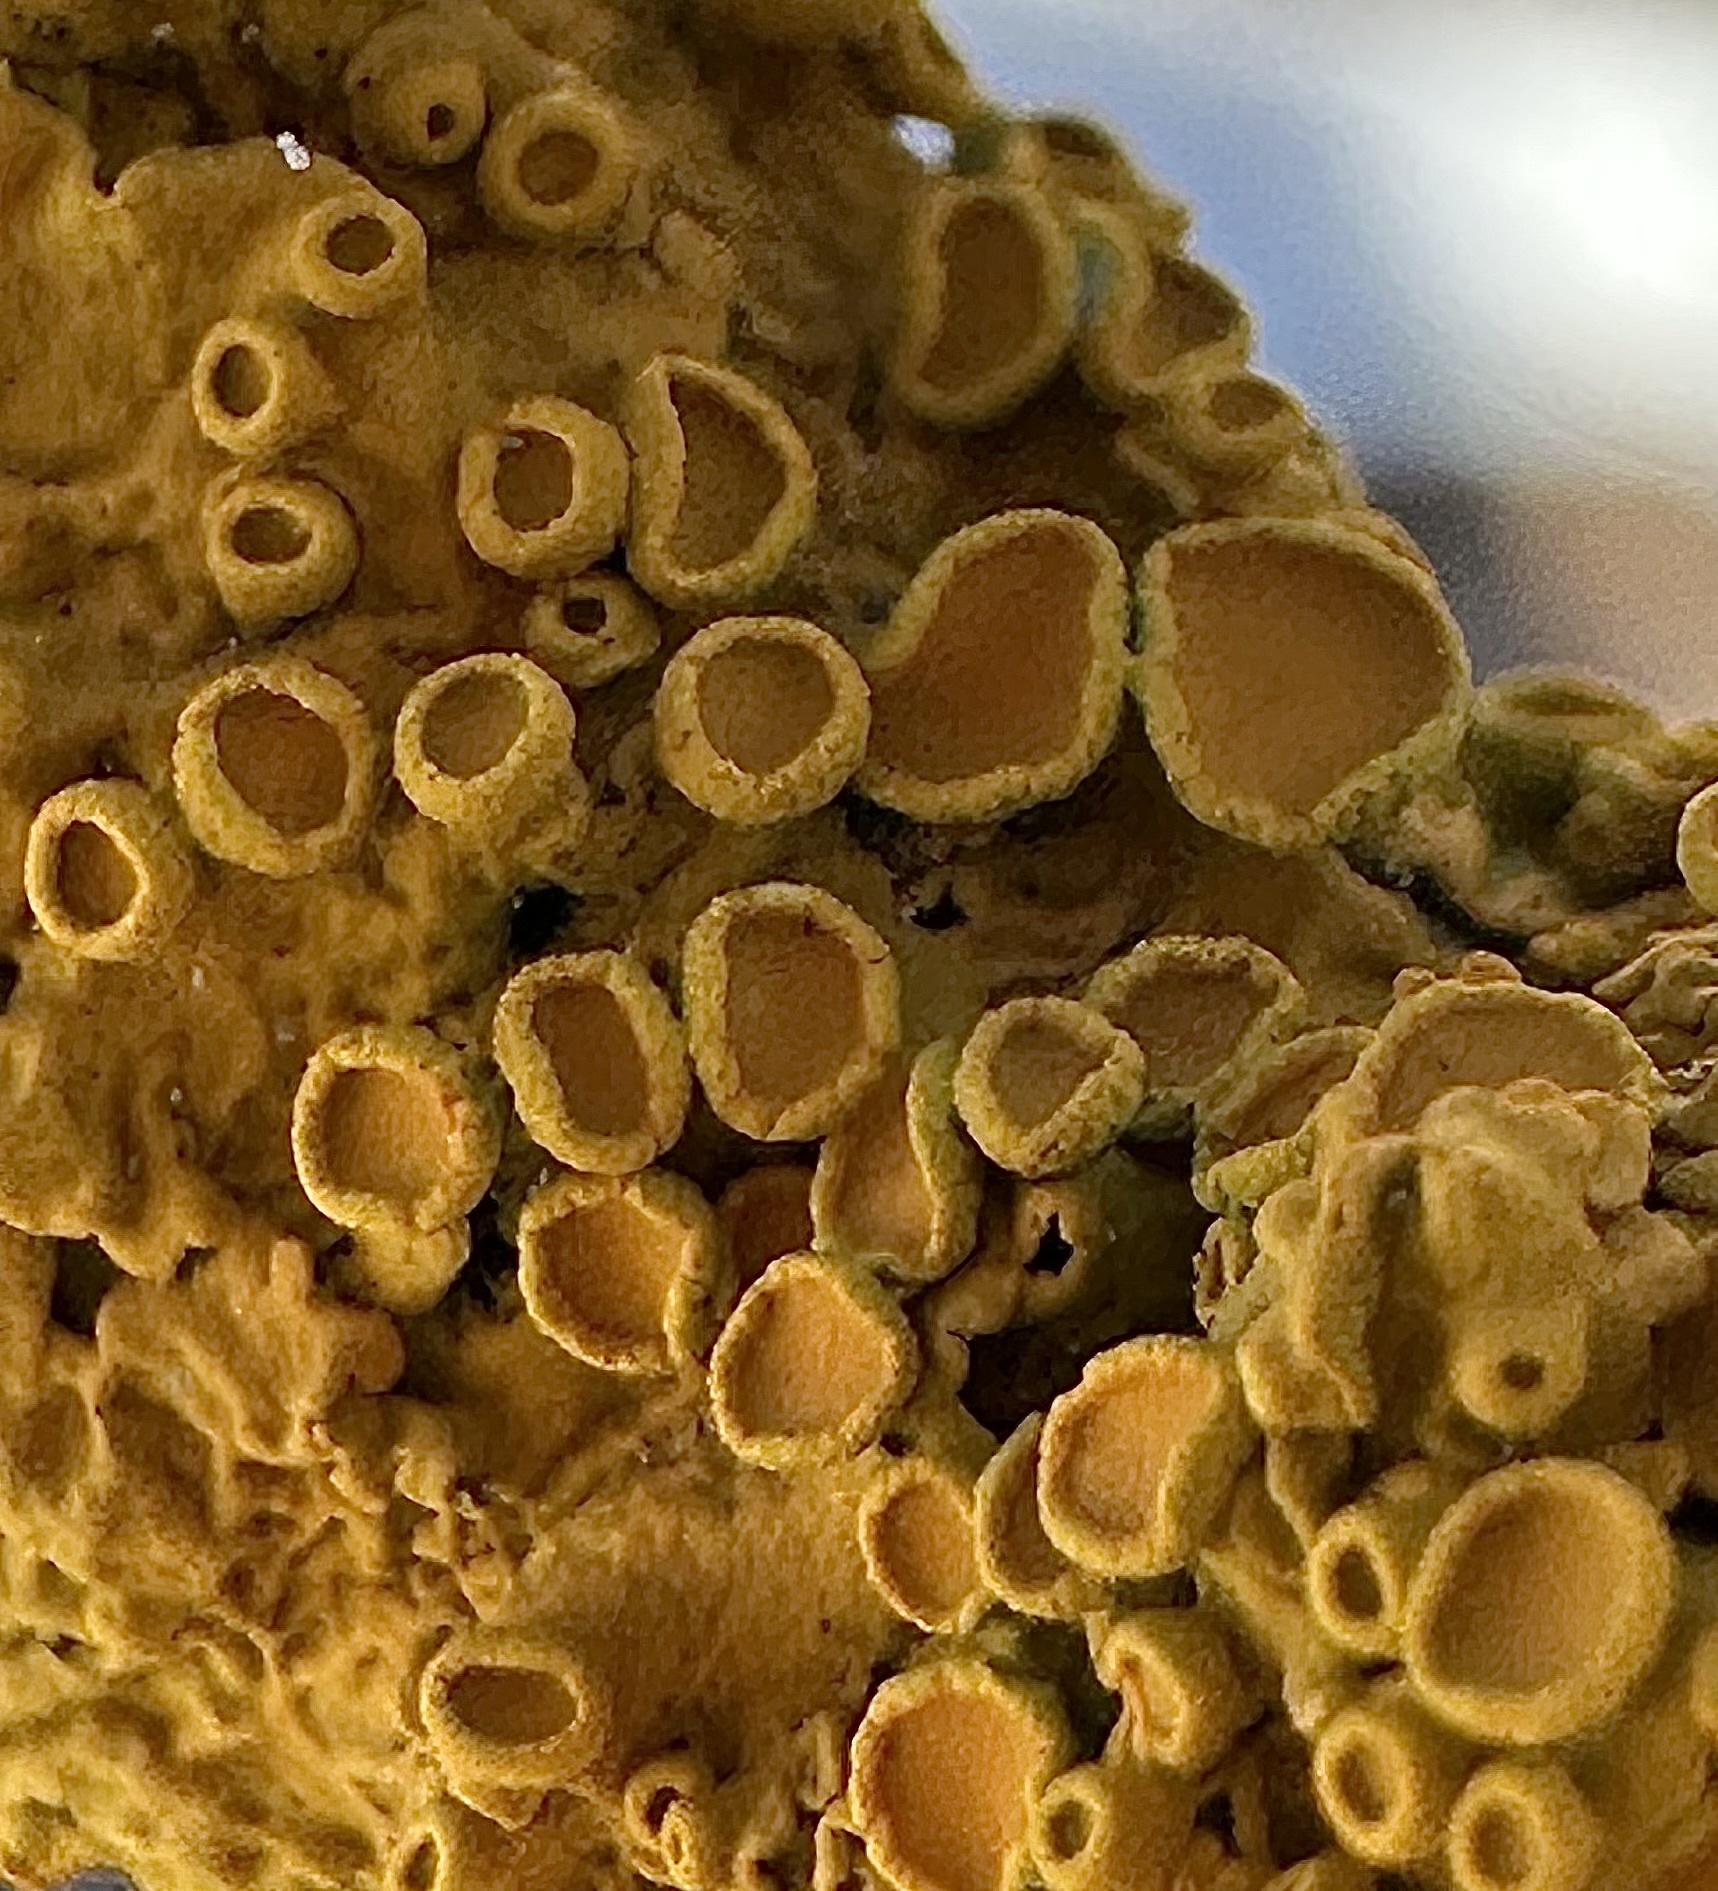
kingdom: Fungi
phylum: Ascomycota
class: Lecanoromycetes
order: Teloschistales
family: Teloschistaceae
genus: Xanthoria
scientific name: Xanthoria parietina
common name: Common orange lichen
